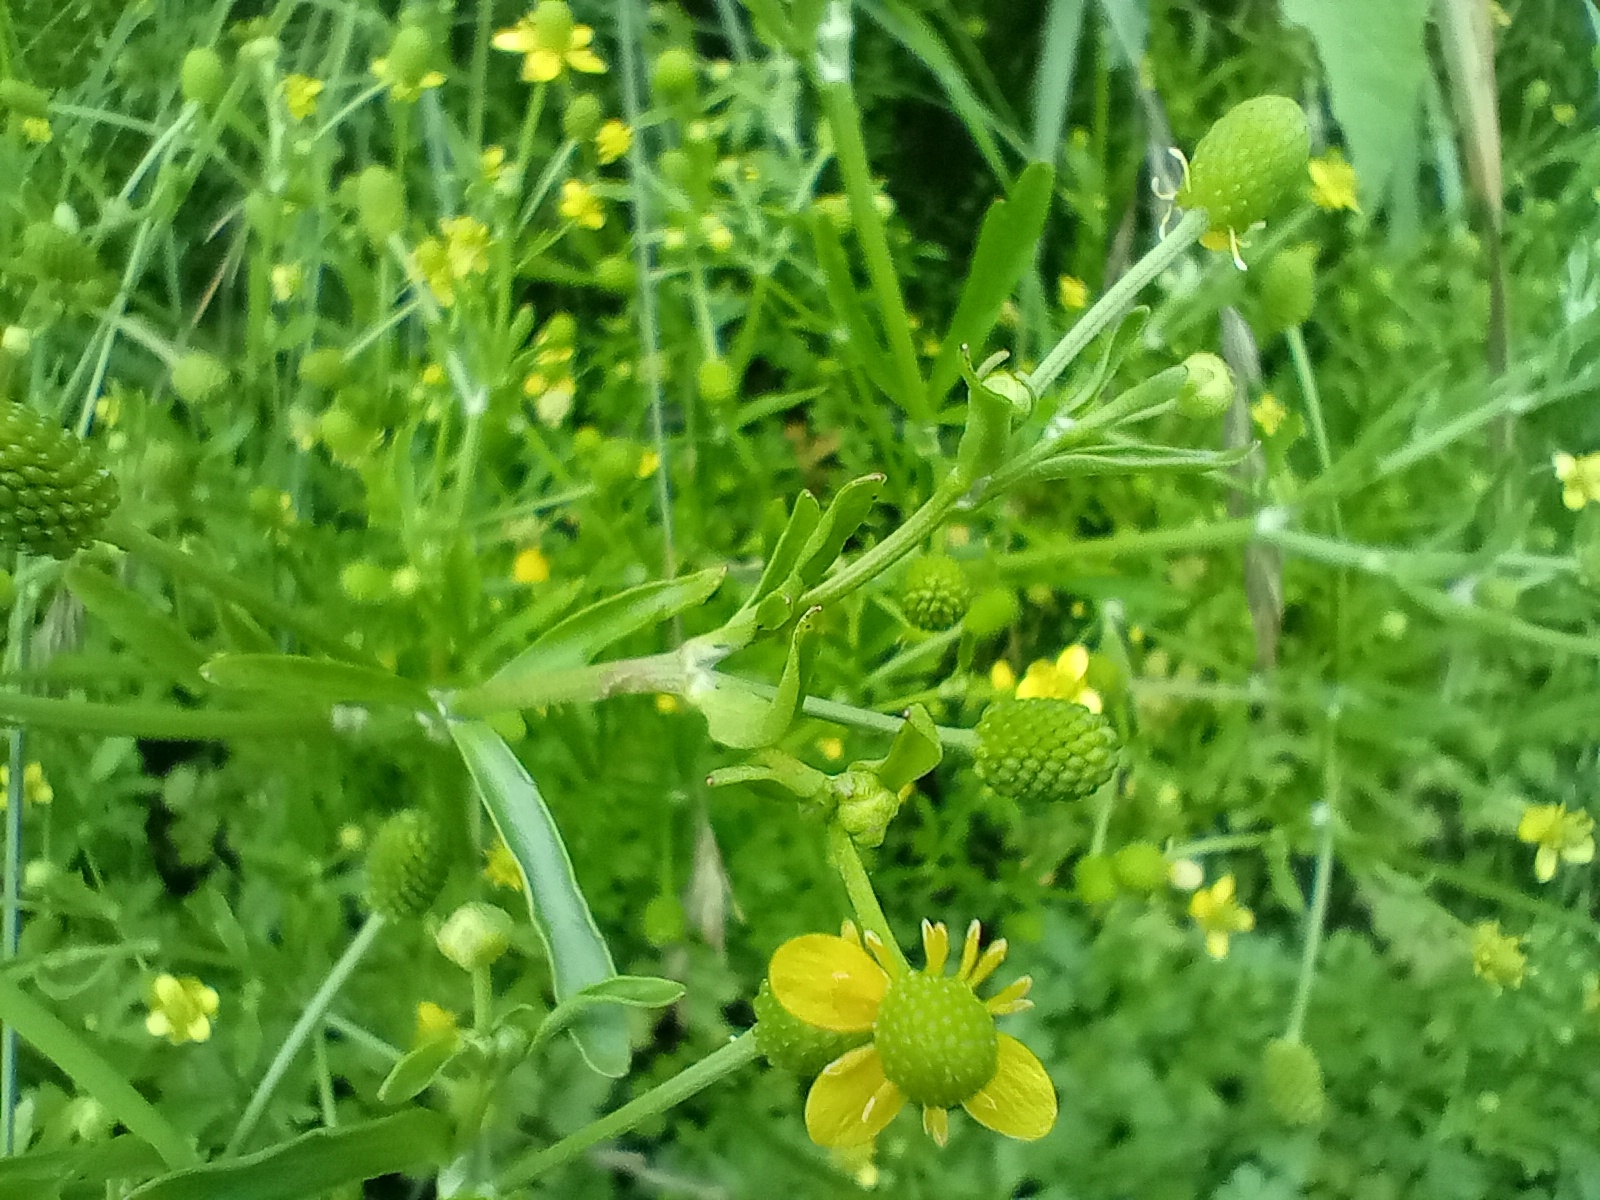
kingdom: Plantae
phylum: Tracheophyta
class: Magnoliopsida
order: Ranunculales
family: Ranunculaceae
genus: Ranunculus
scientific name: Ranunculus sceleratus
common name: Celery-leaved buttercup
